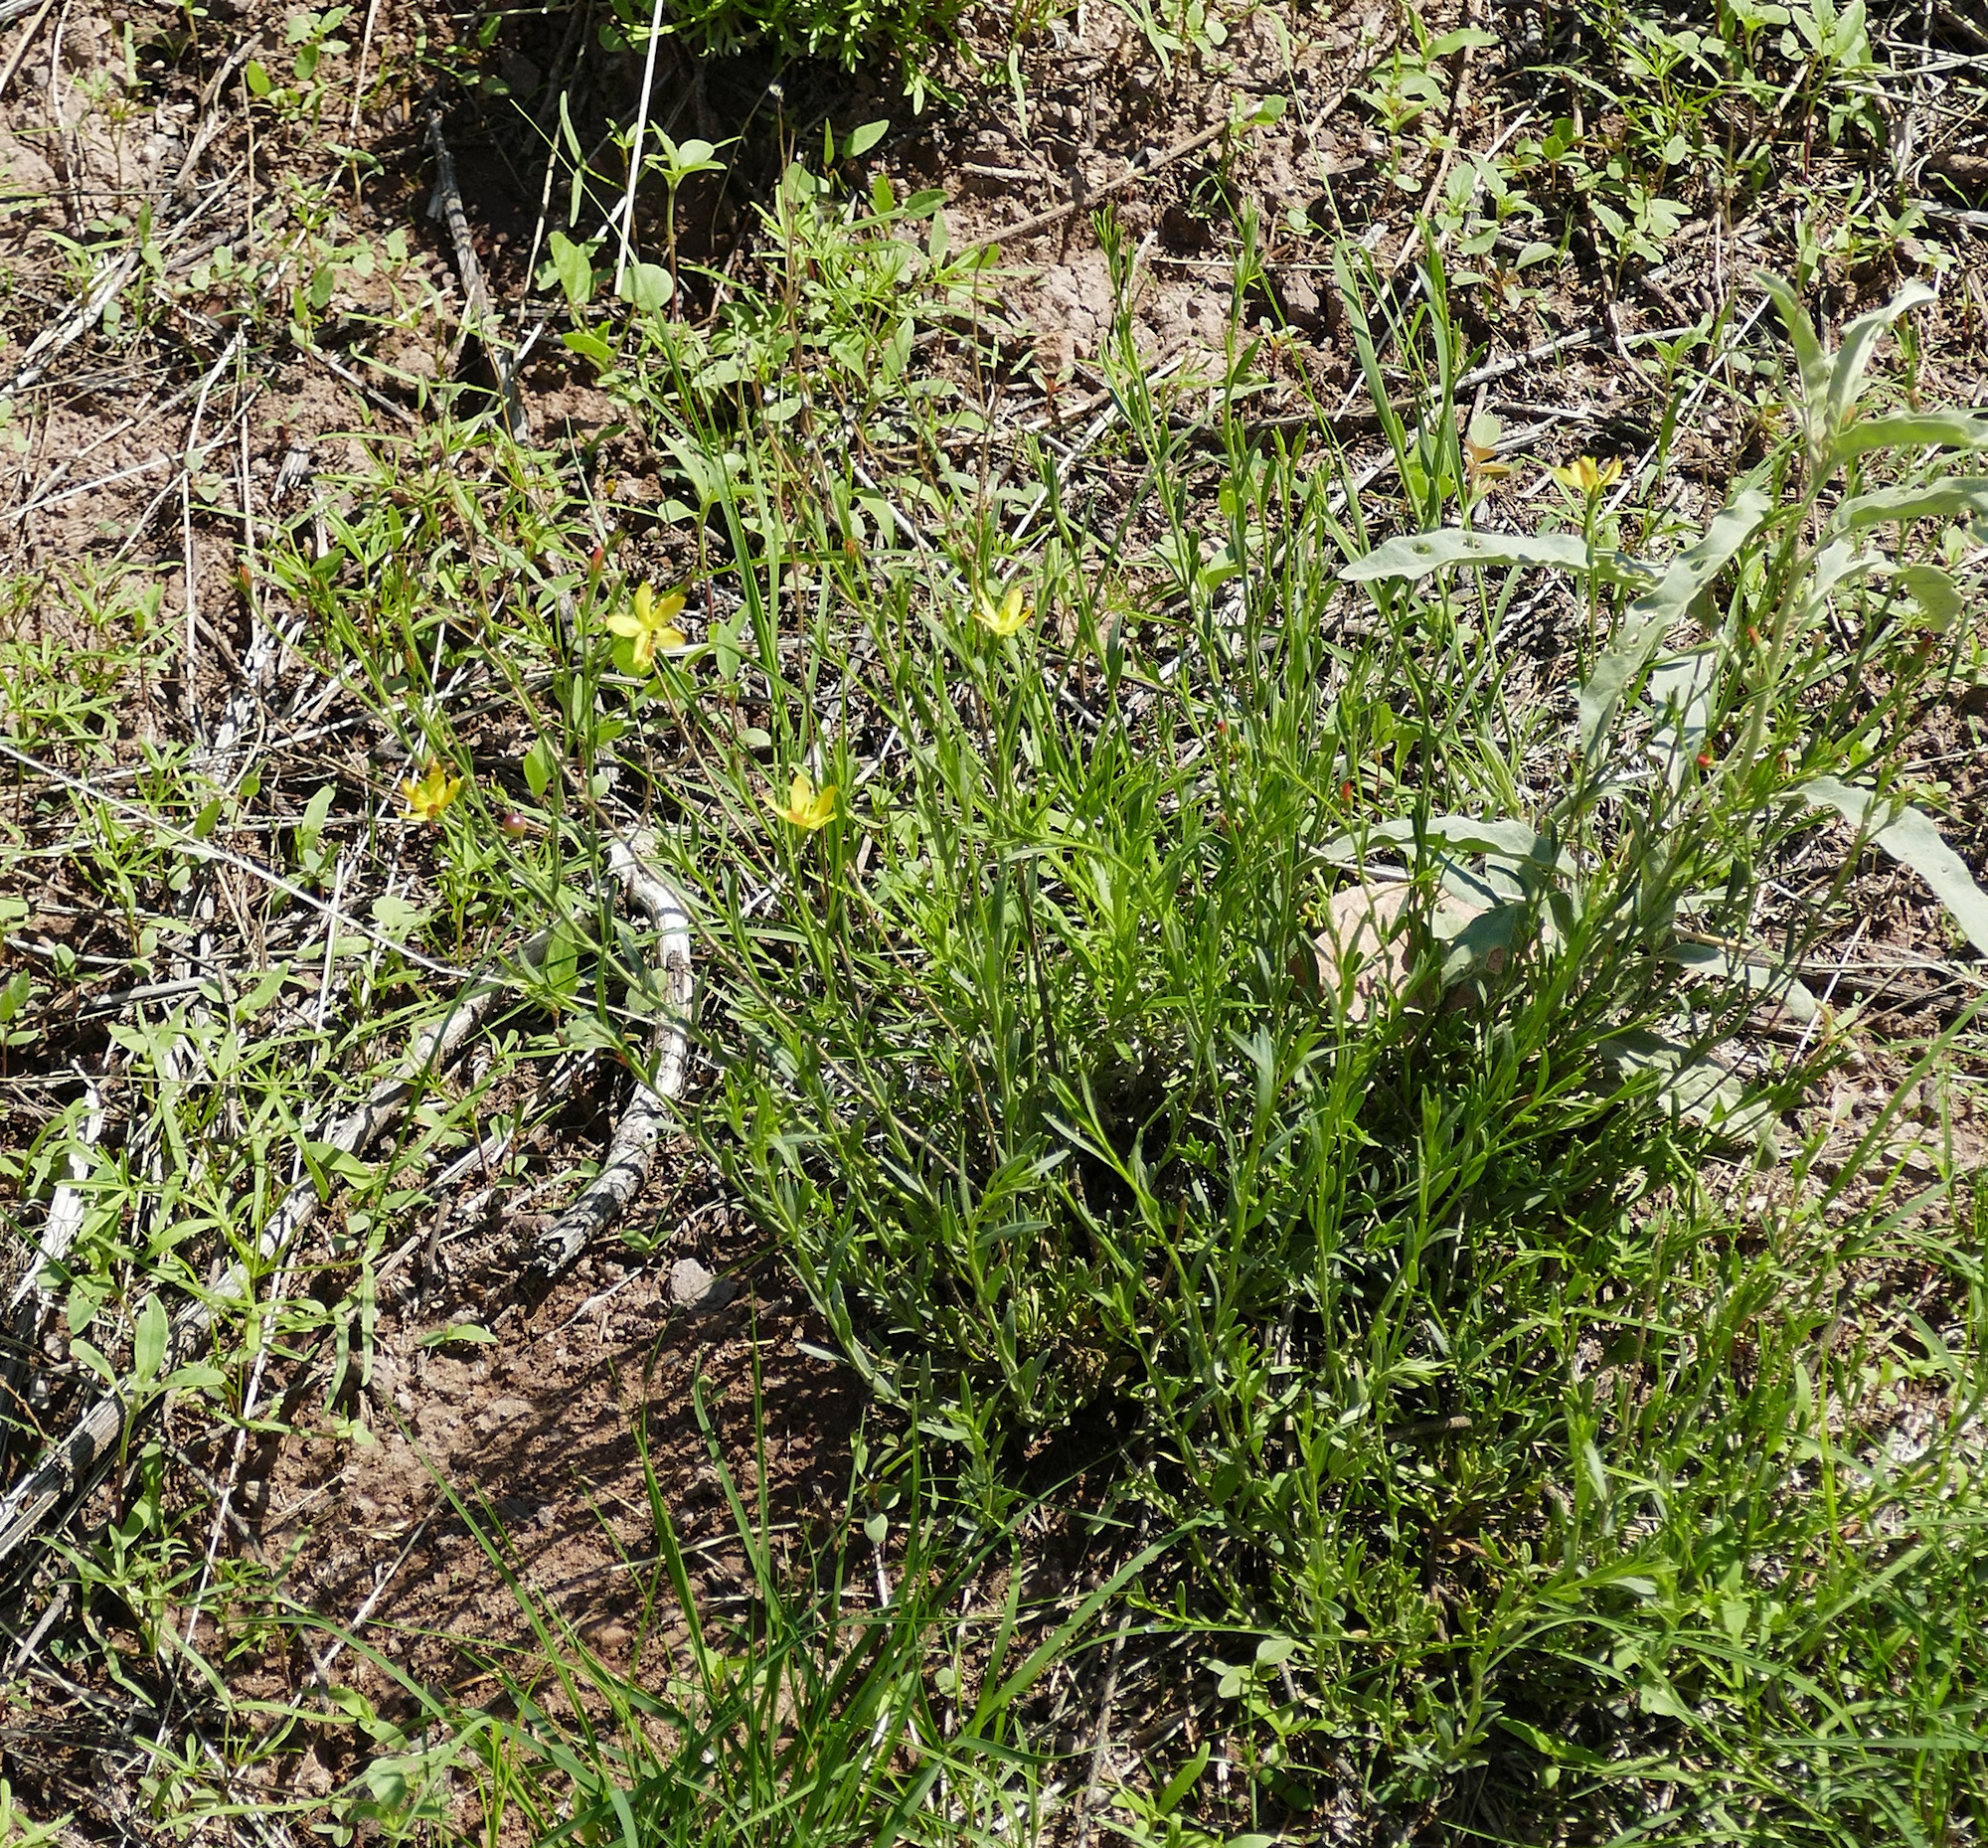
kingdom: Plantae
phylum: Tracheophyta
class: Magnoliopsida
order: Lamiales
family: Oleaceae
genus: Menodora
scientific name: Menodora scabra
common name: Rough menodora
